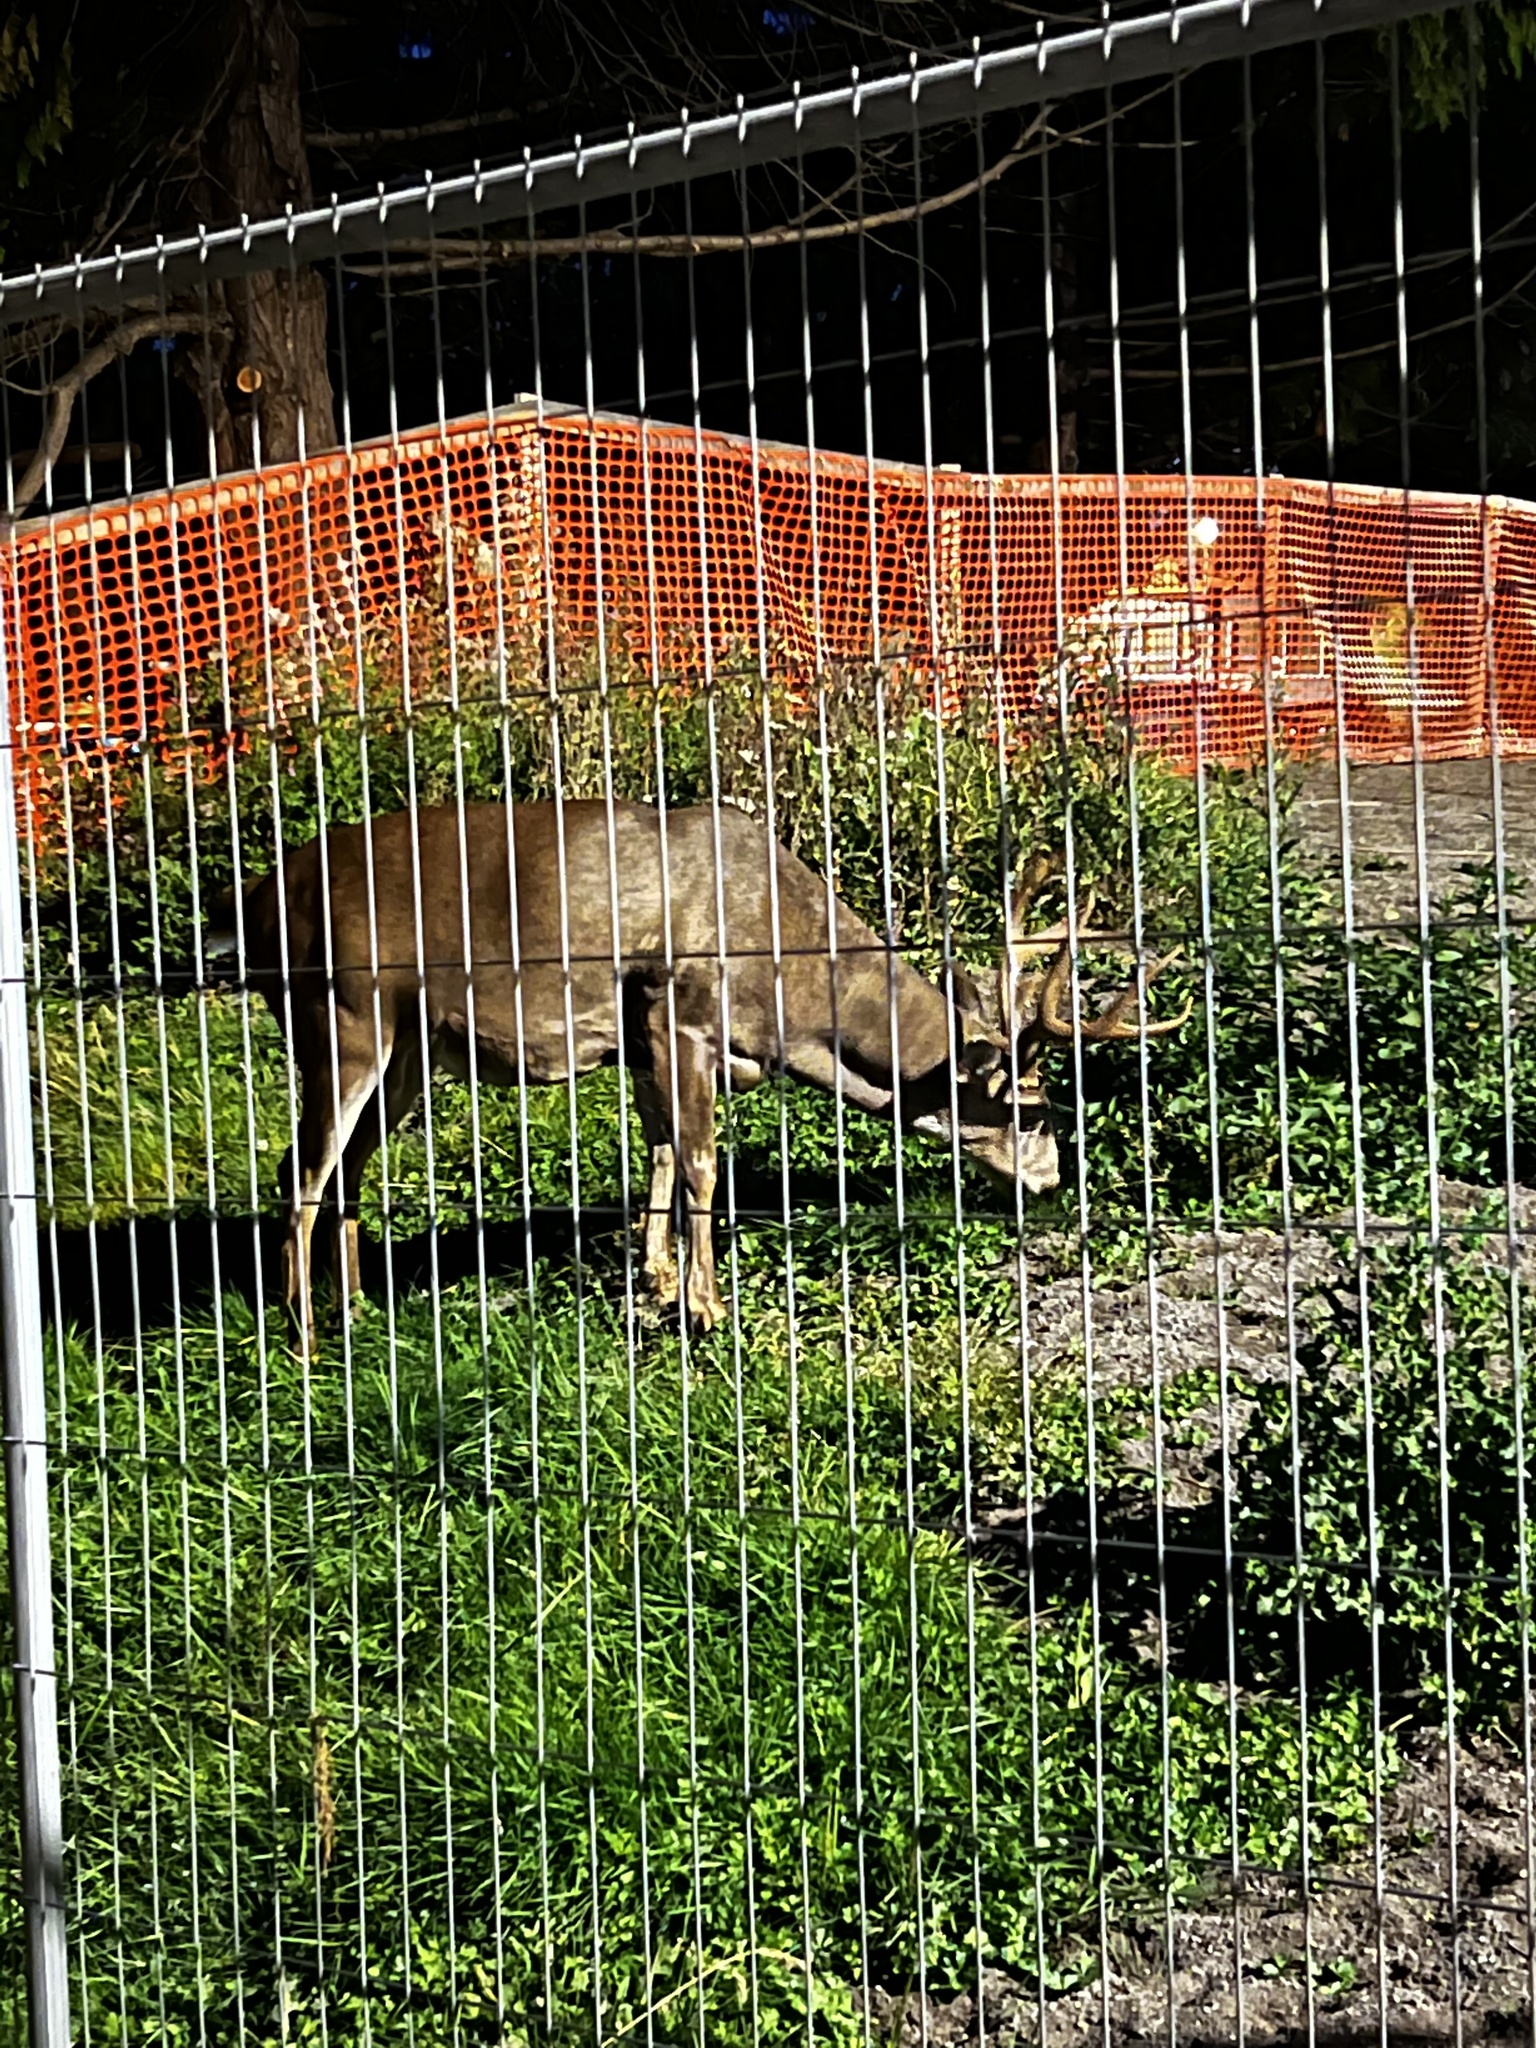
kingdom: Animalia
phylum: Chordata
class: Mammalia
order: Artiodactyla
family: Cervidae
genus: Odocoileus
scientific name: Odocoileus hemionus
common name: Mule deer
